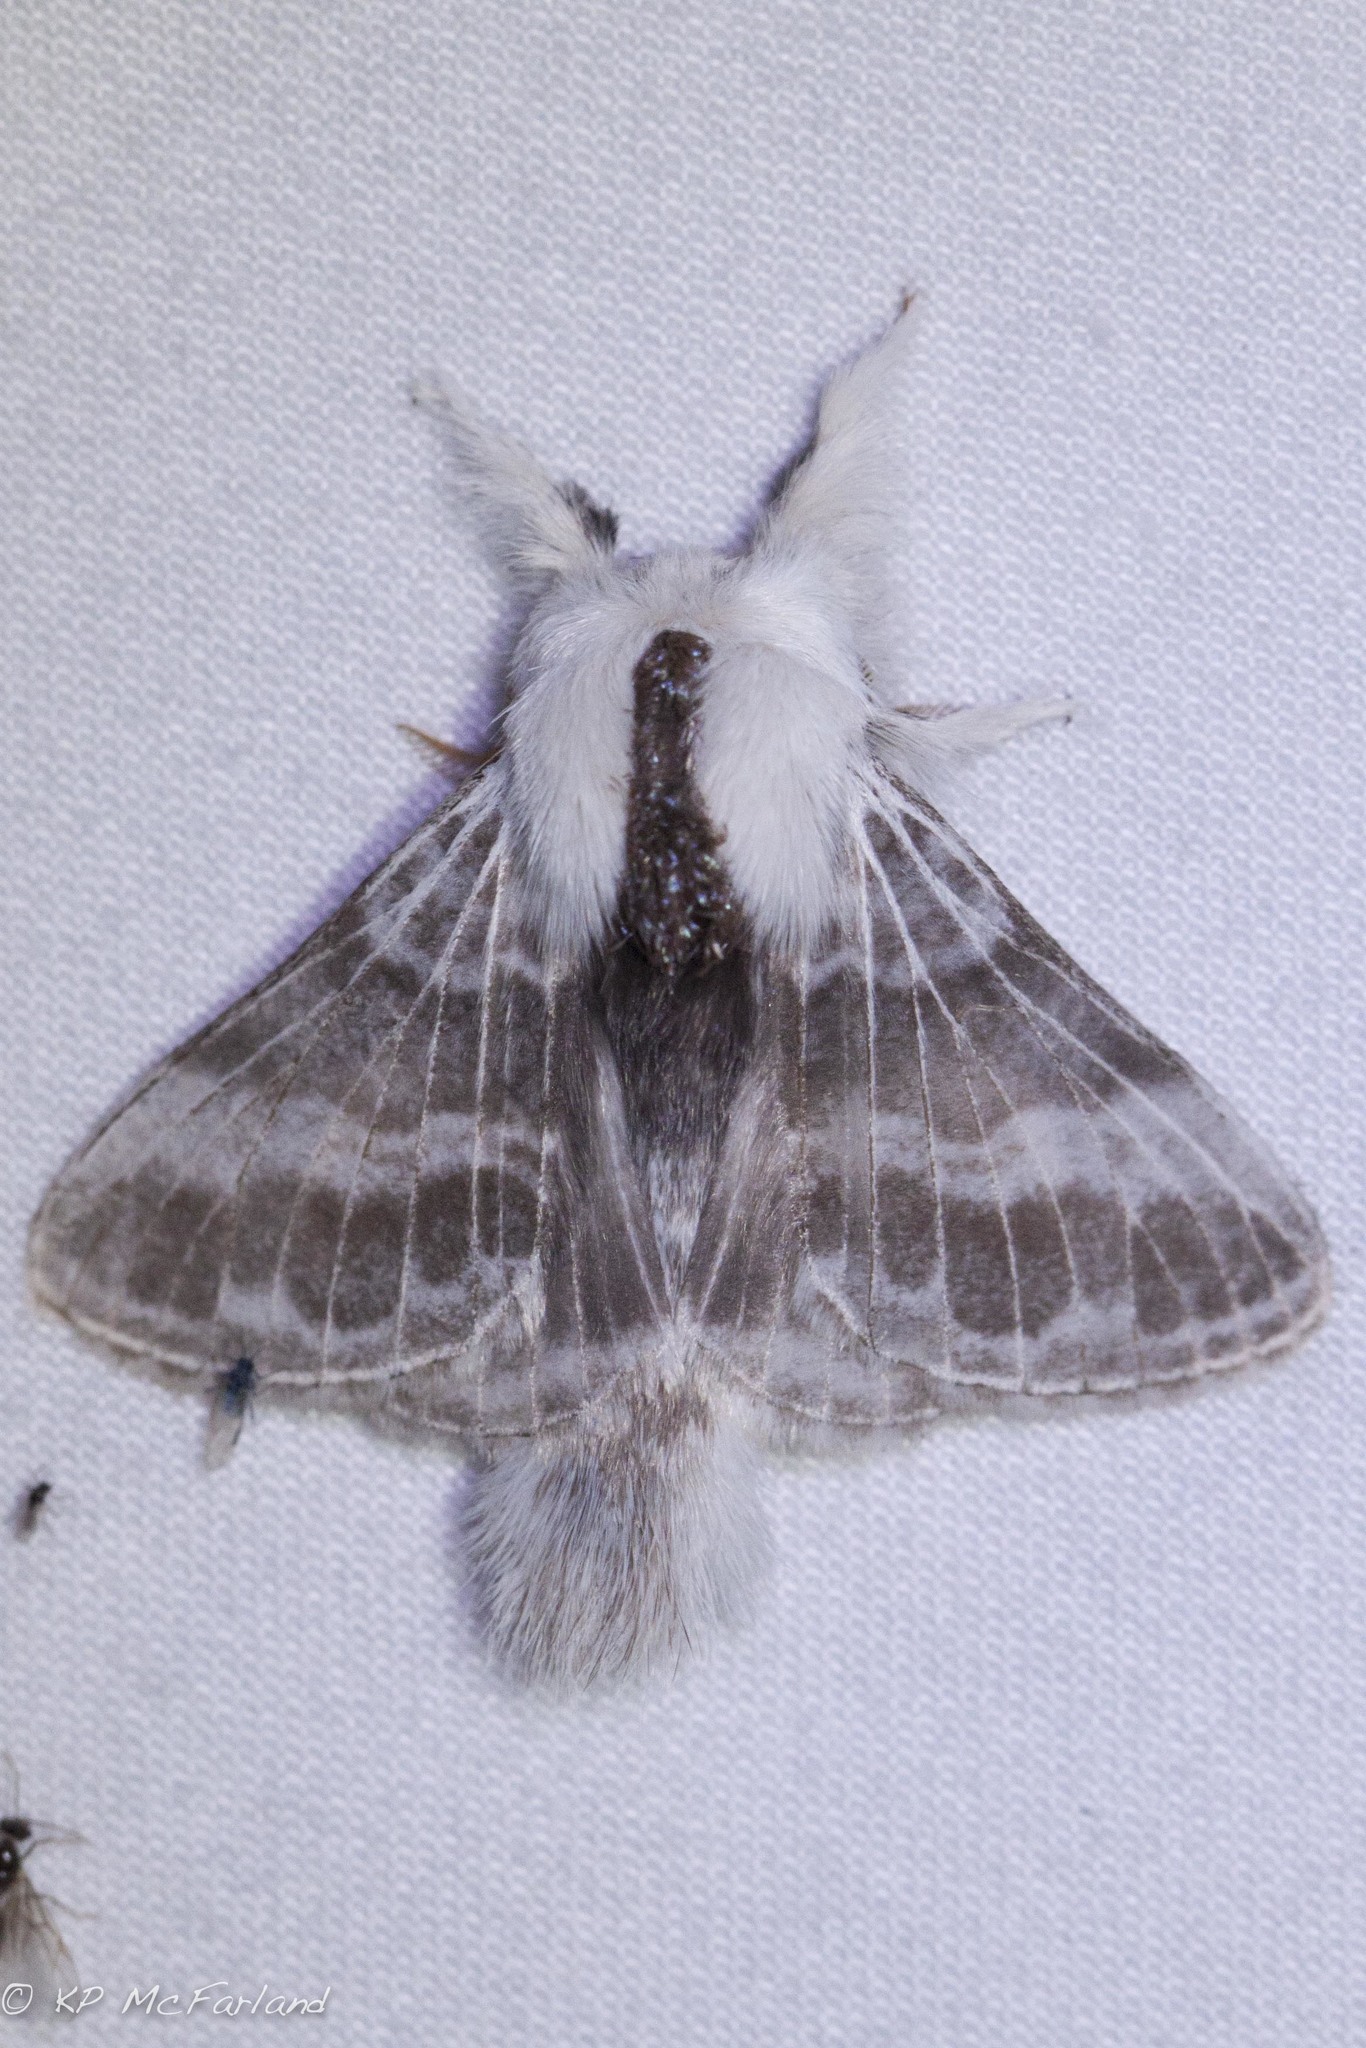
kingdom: Animalia
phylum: Arthropoda
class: Insecta
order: Lepidoptera
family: Lasiocampidae
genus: Tolype
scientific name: Tolype velleda
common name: Large tolype moth
